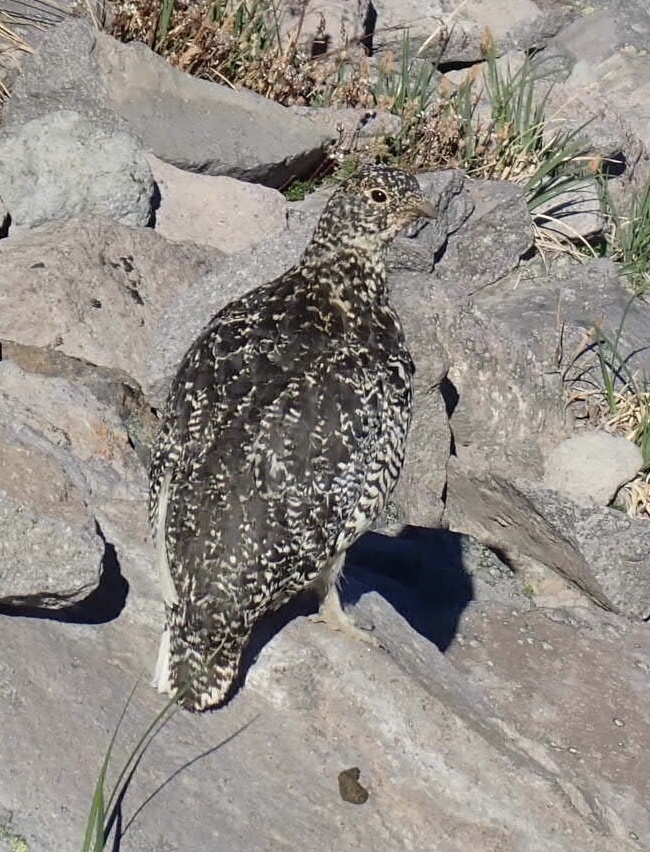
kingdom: Animalia
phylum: Chordata
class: Aves
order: Galliformes
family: Phasianidae
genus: Lagopus
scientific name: Lagopus leucura
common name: White-tailed ptarmigan
